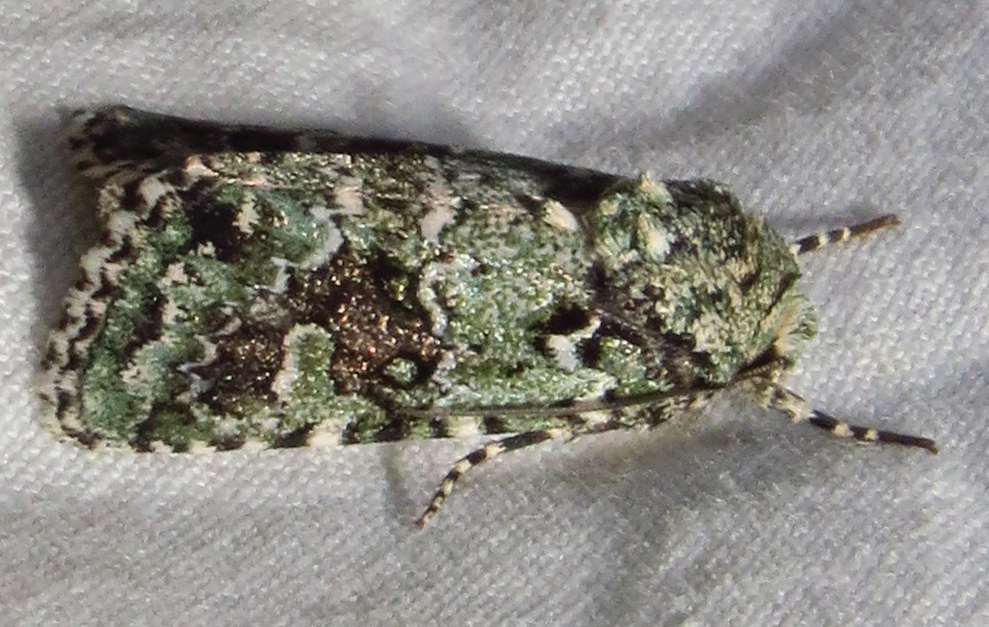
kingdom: Animalia
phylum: Arthropoda
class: Insecta
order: Lepidoptera
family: Noctuidae
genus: Lacinipolia
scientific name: Lacinipolia laudabilis
